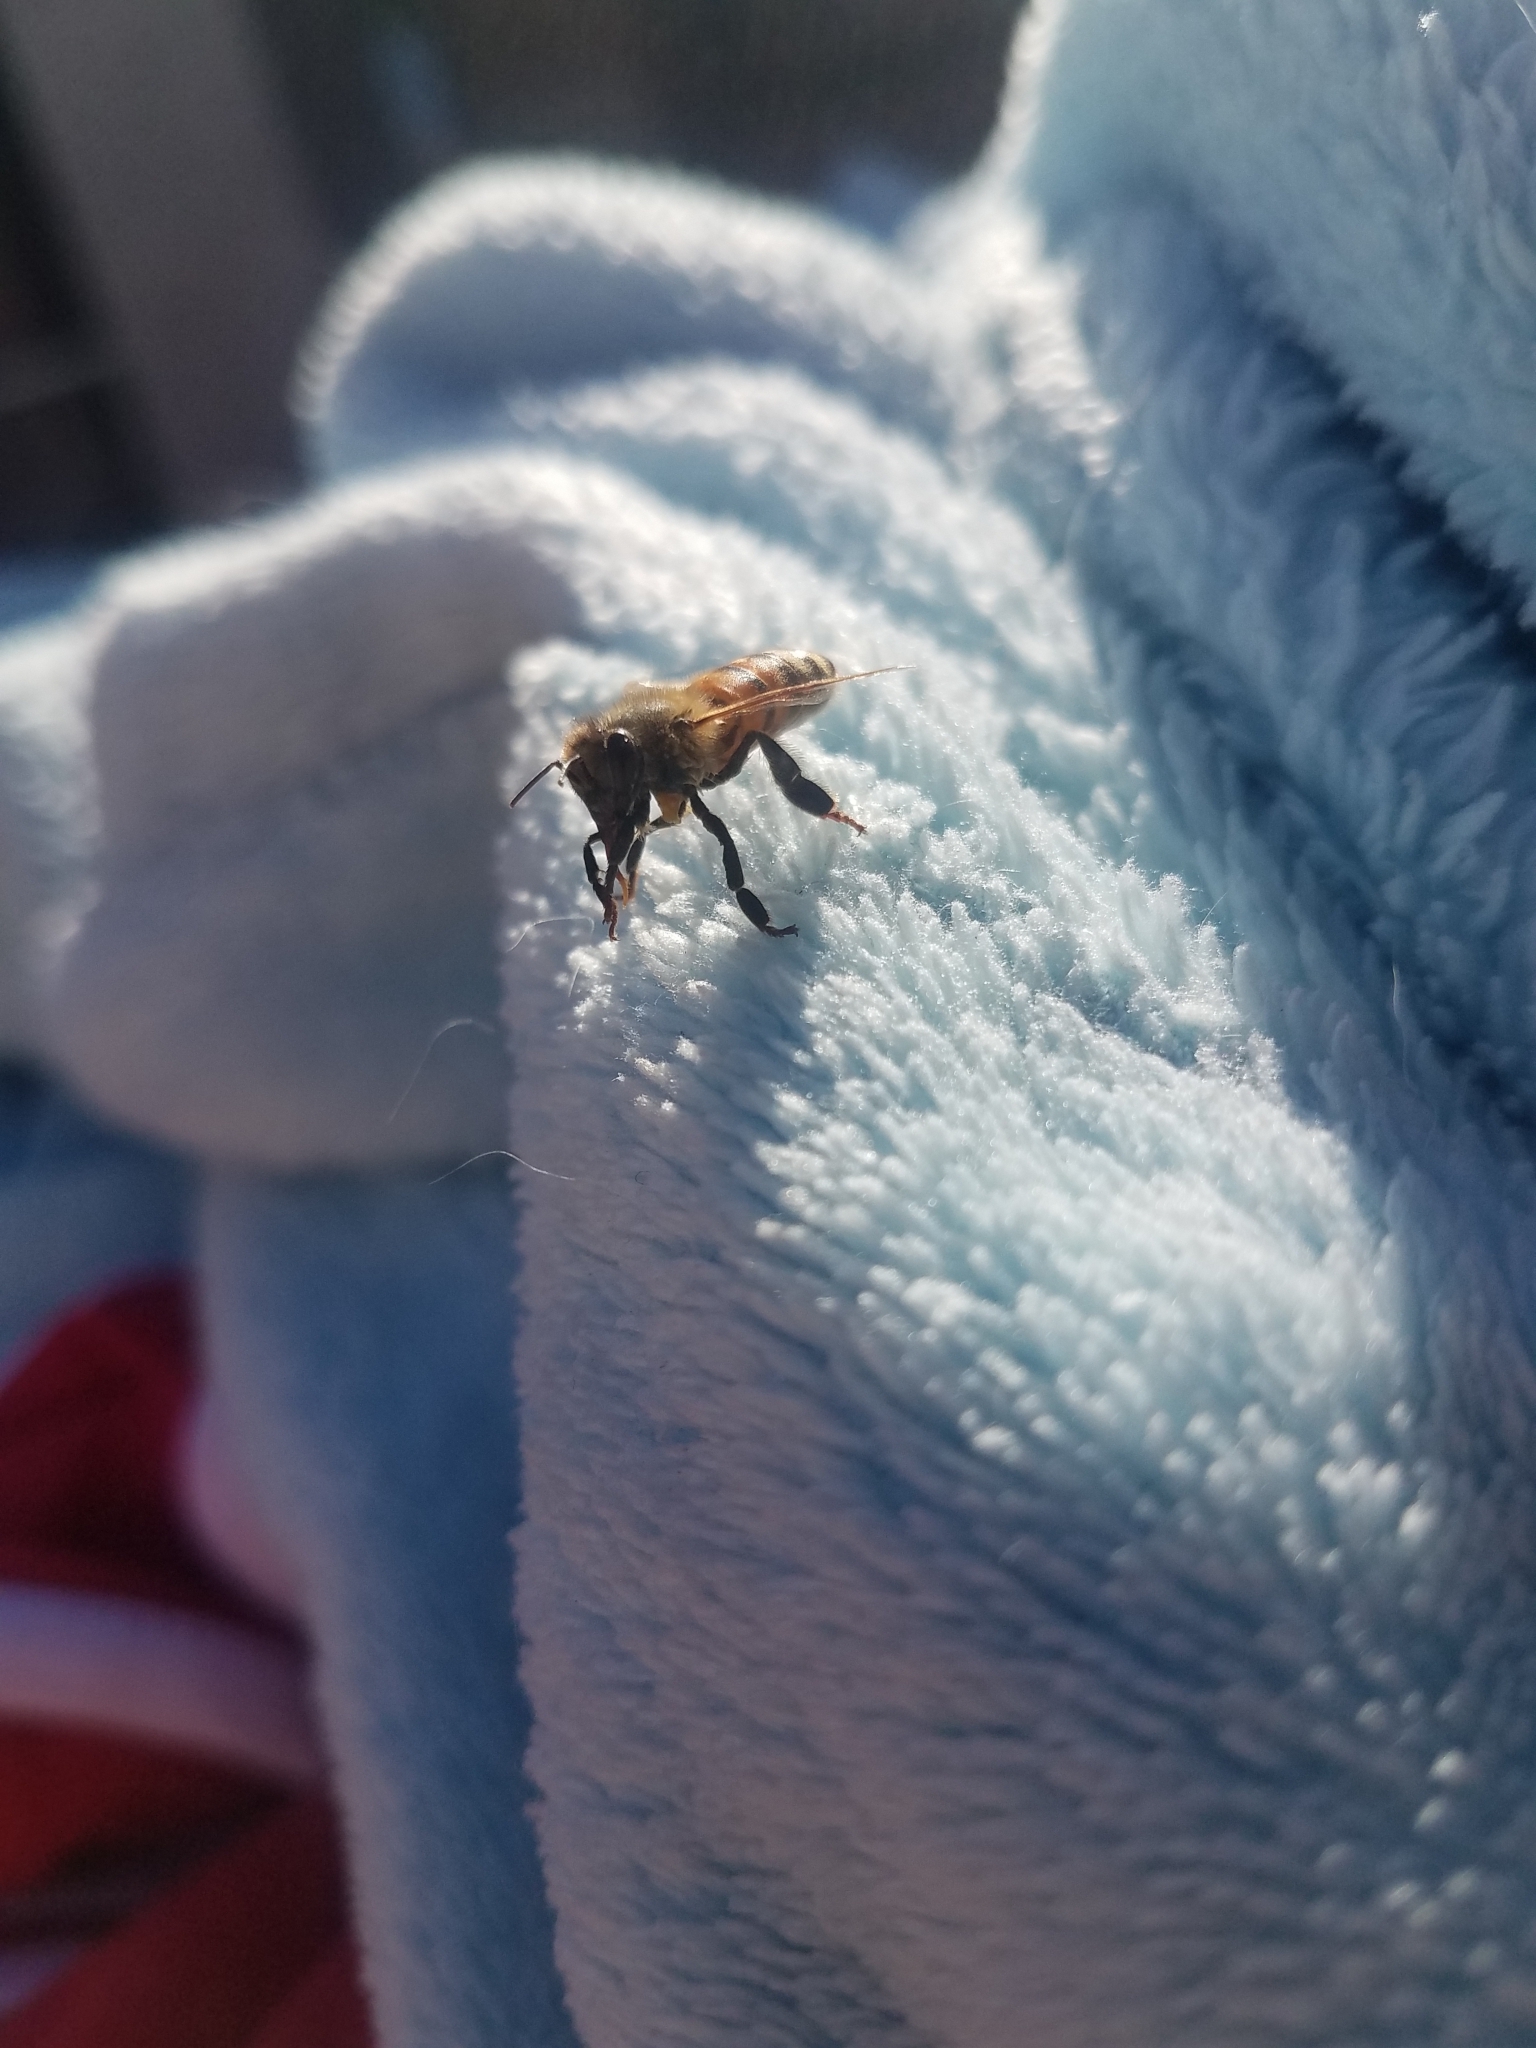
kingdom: Animalia
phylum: Arthropoda
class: Insecta
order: Hymenoptera
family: Apidae
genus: Apis
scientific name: Apis mellifera
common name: Honey bee
